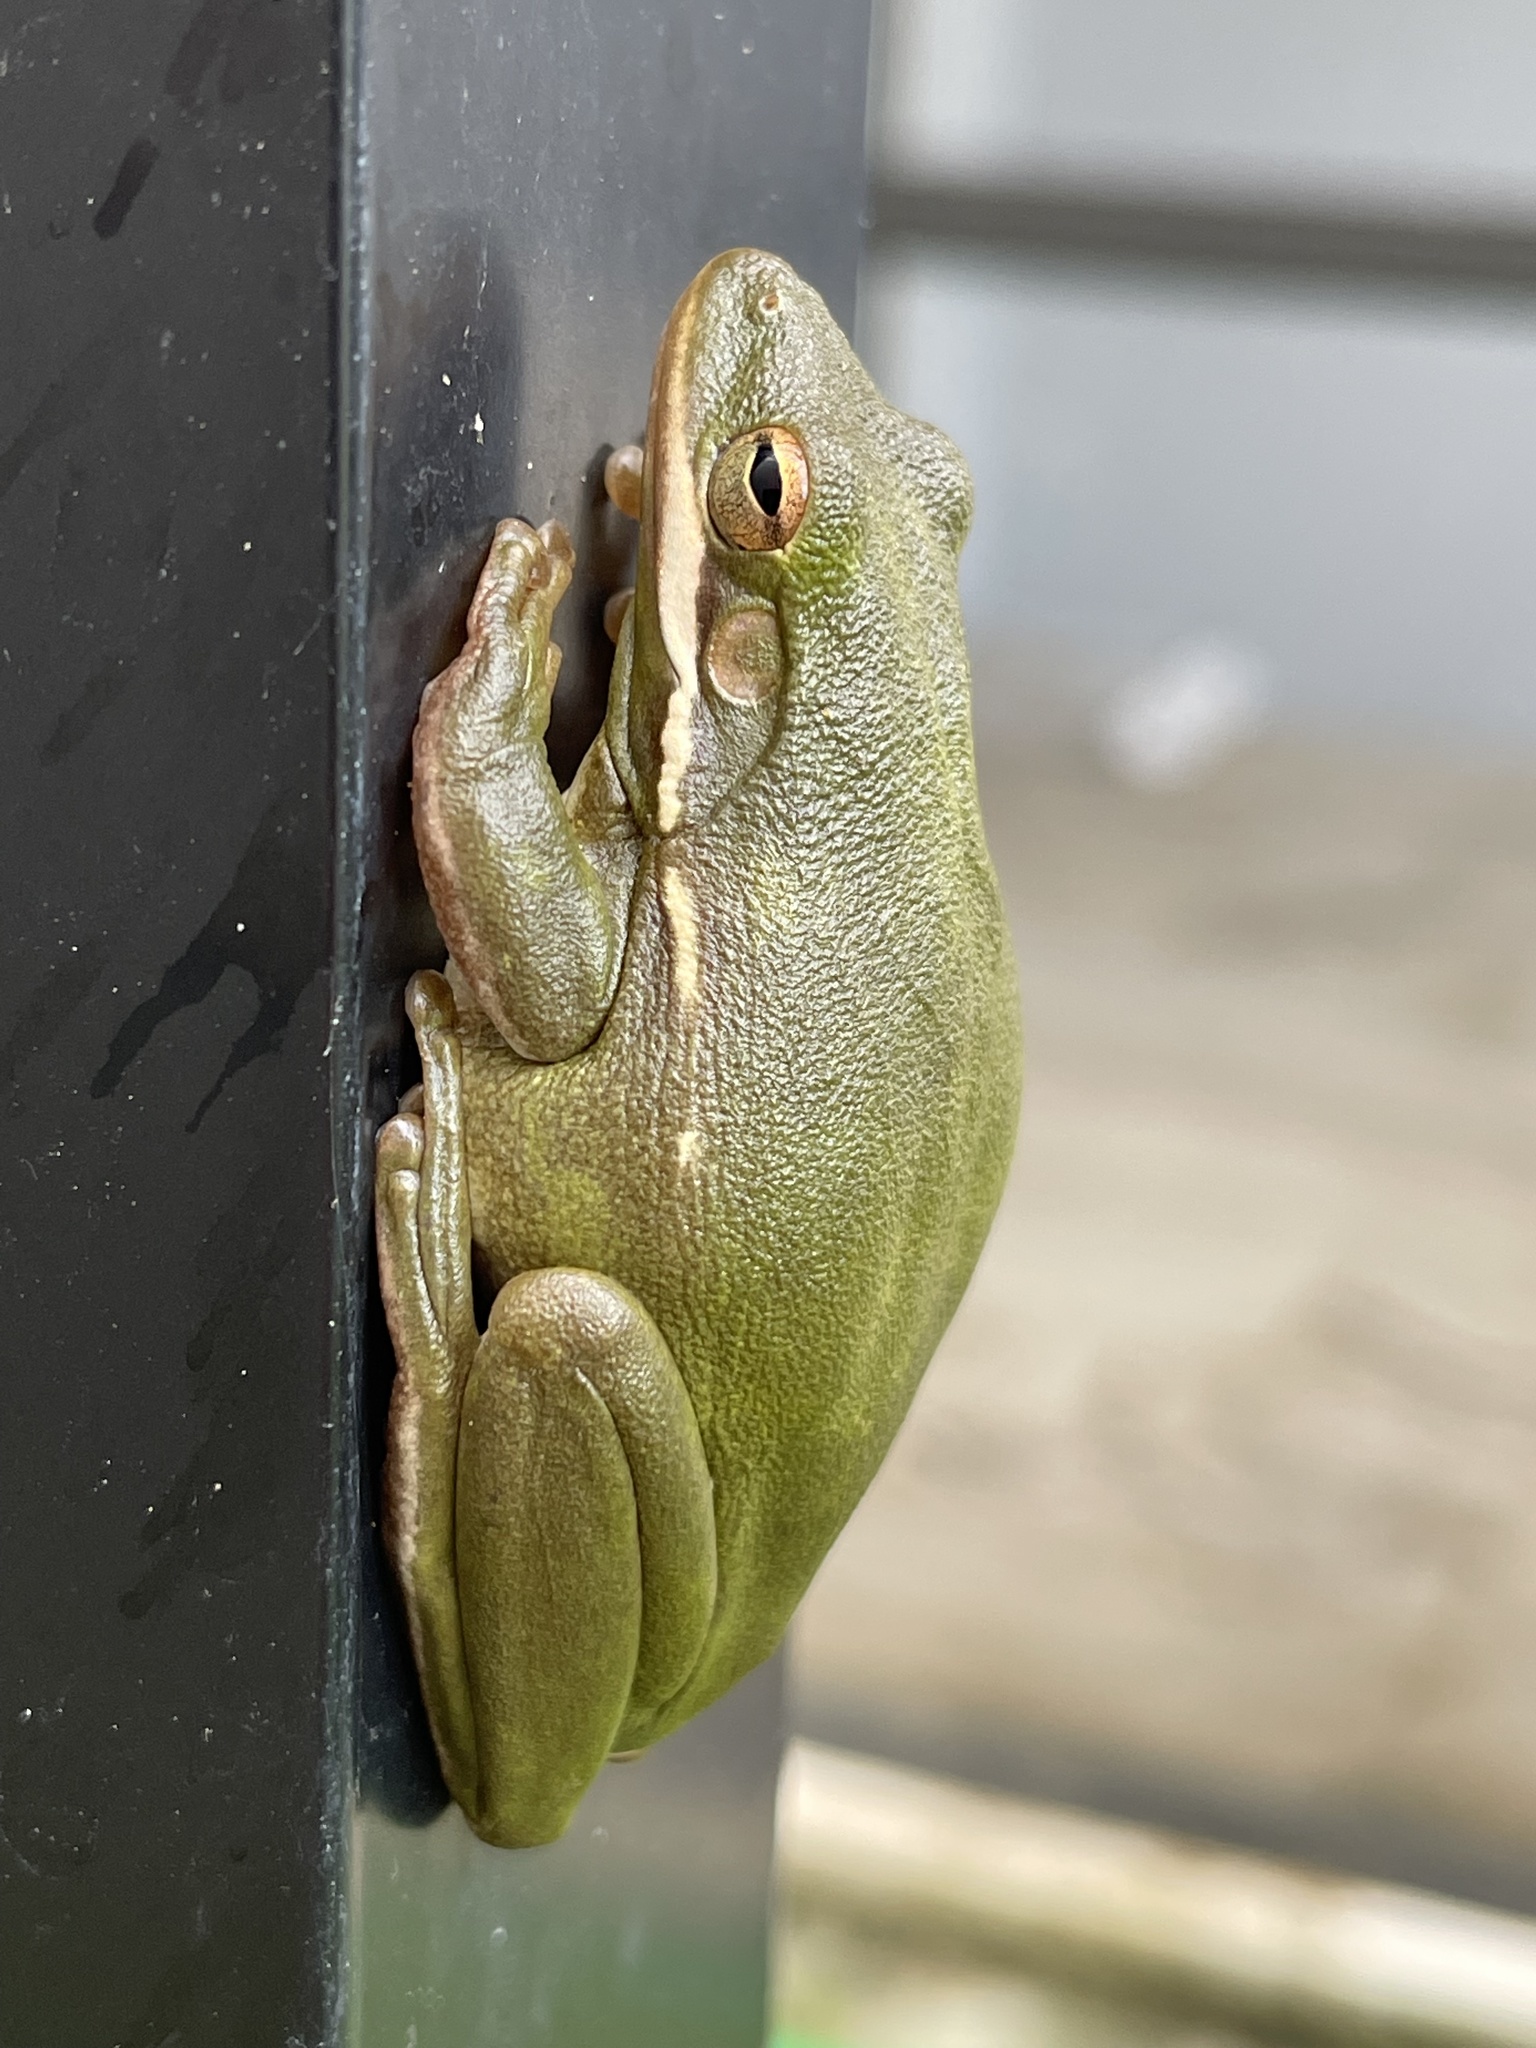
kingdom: Animalia
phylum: Chordata
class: Amphibia
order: Anura
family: Hylidae
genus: Dryophytes
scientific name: Dryophytes cinereus
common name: Green treefrog
